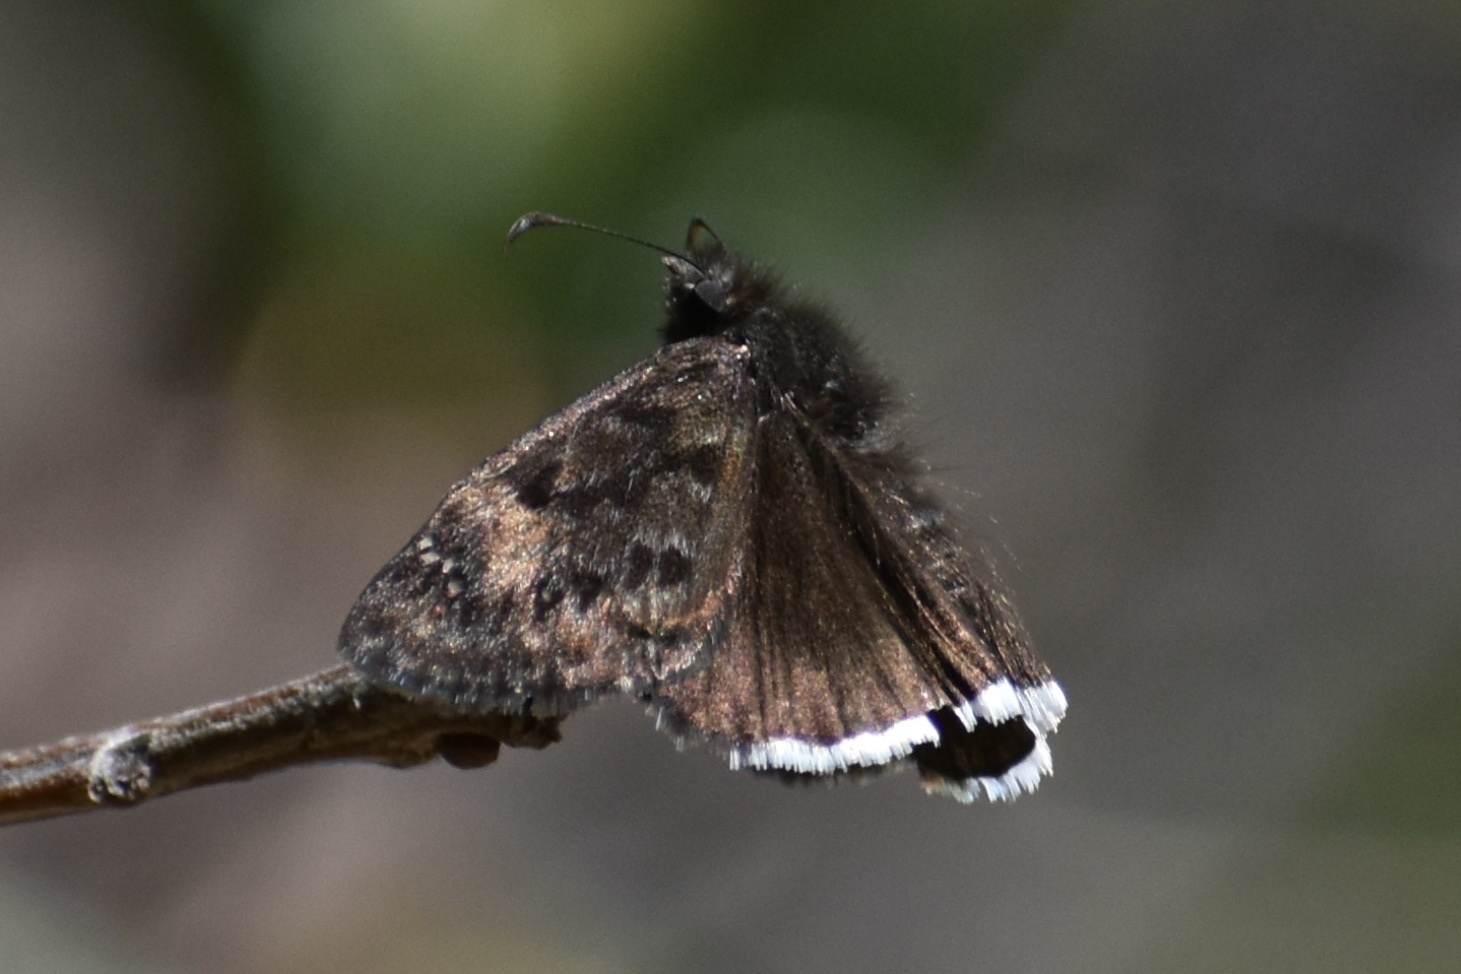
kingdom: Animalia
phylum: Arthropoda
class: Insecta
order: Lepidoptera
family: Hesperiidae
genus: Erynnis
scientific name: Erynnis tristis
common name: Mournful duskywing
